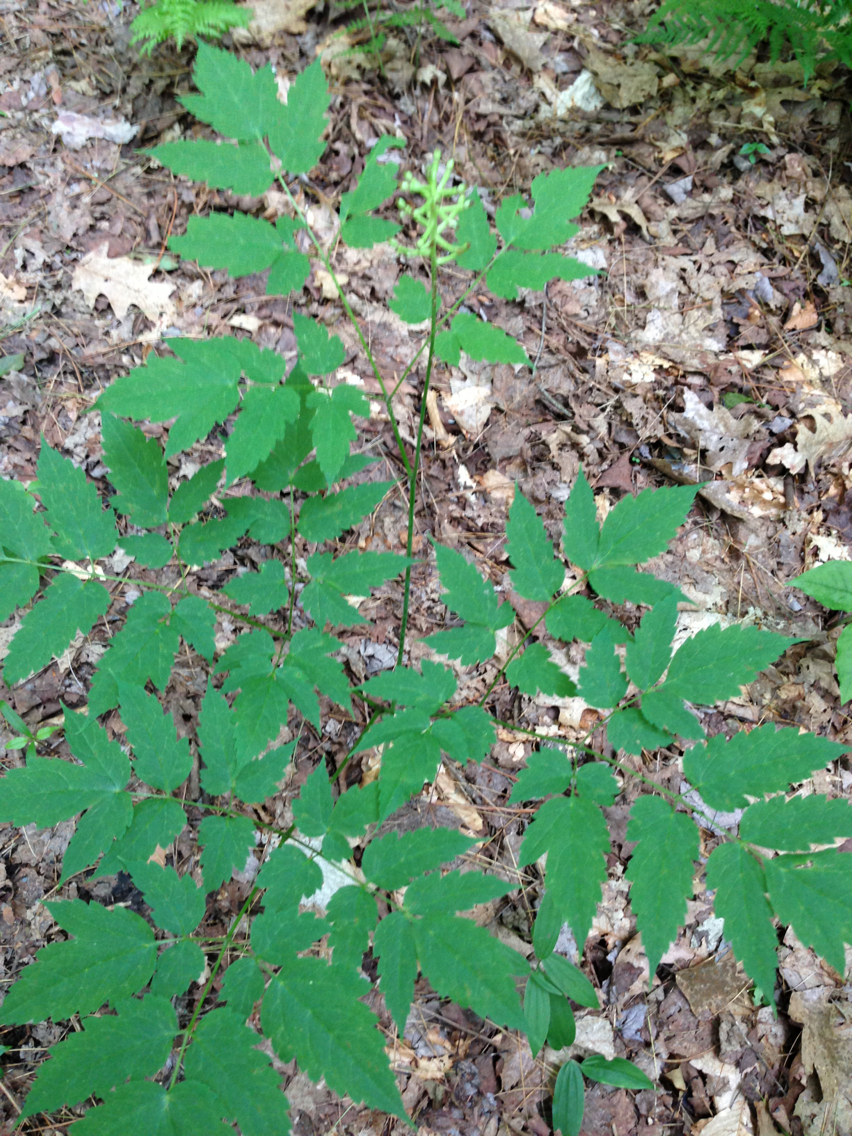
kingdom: Plantae
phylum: Tracheophyta
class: Magnoliopsida
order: Ranunculales
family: Ranunculaceae
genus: Actaea
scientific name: Actaea pachypoda
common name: Doll's-eyes
